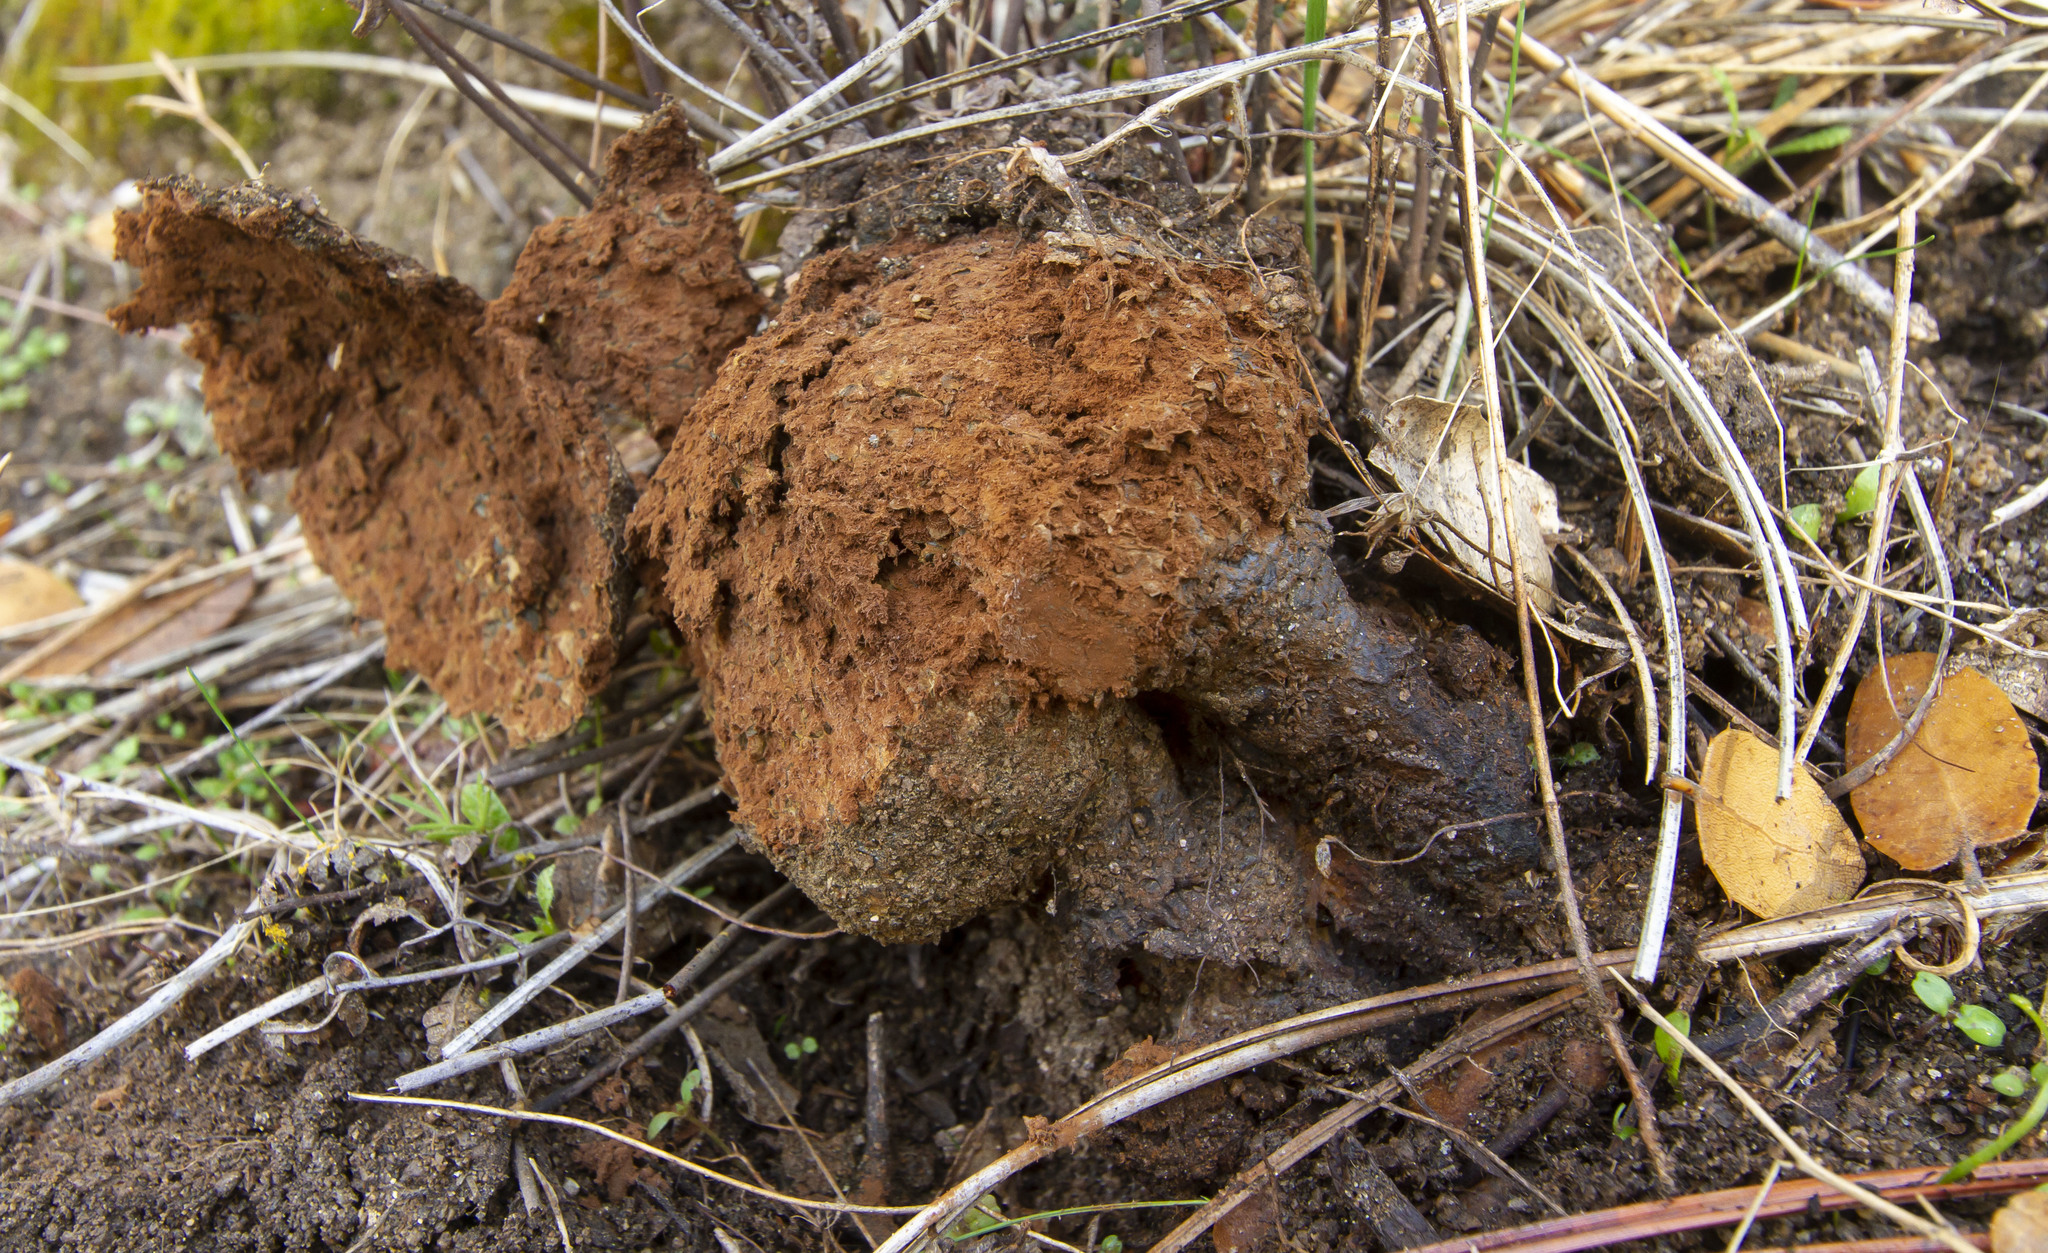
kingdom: Fungi
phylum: Basidiomycota
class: Agaricomycetes
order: Boletales
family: Sclerodermataceae
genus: Pisolithus
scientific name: Pisolithus arhizus
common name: Dyeball
